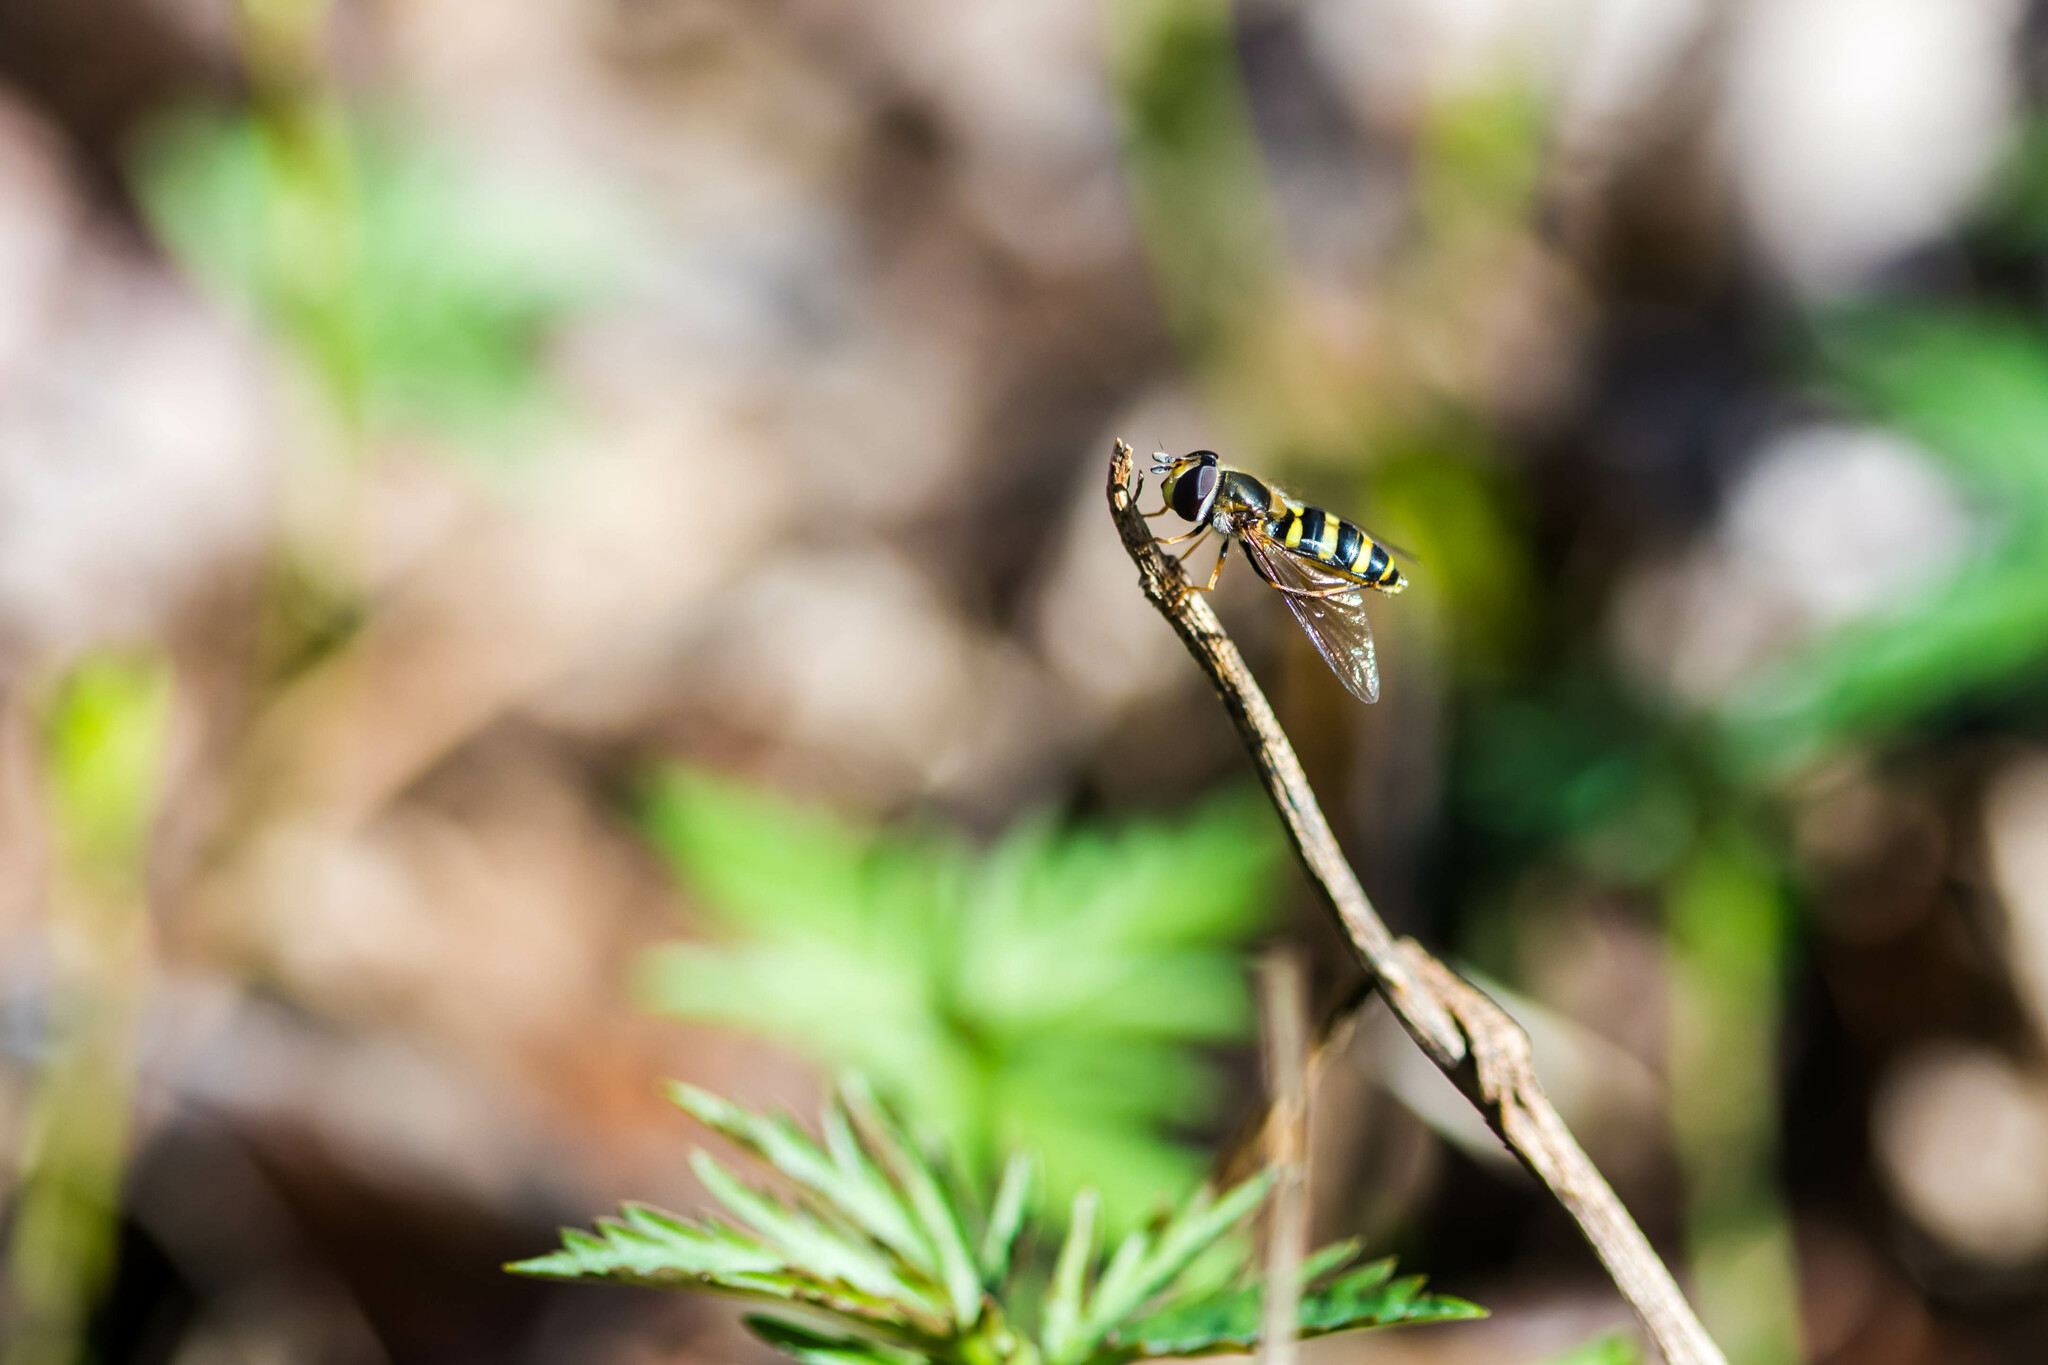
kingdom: Animalia
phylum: Arthropoda
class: Insecta
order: Diptera
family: Syrphidae
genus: Eupeodes
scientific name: Eupeodes
